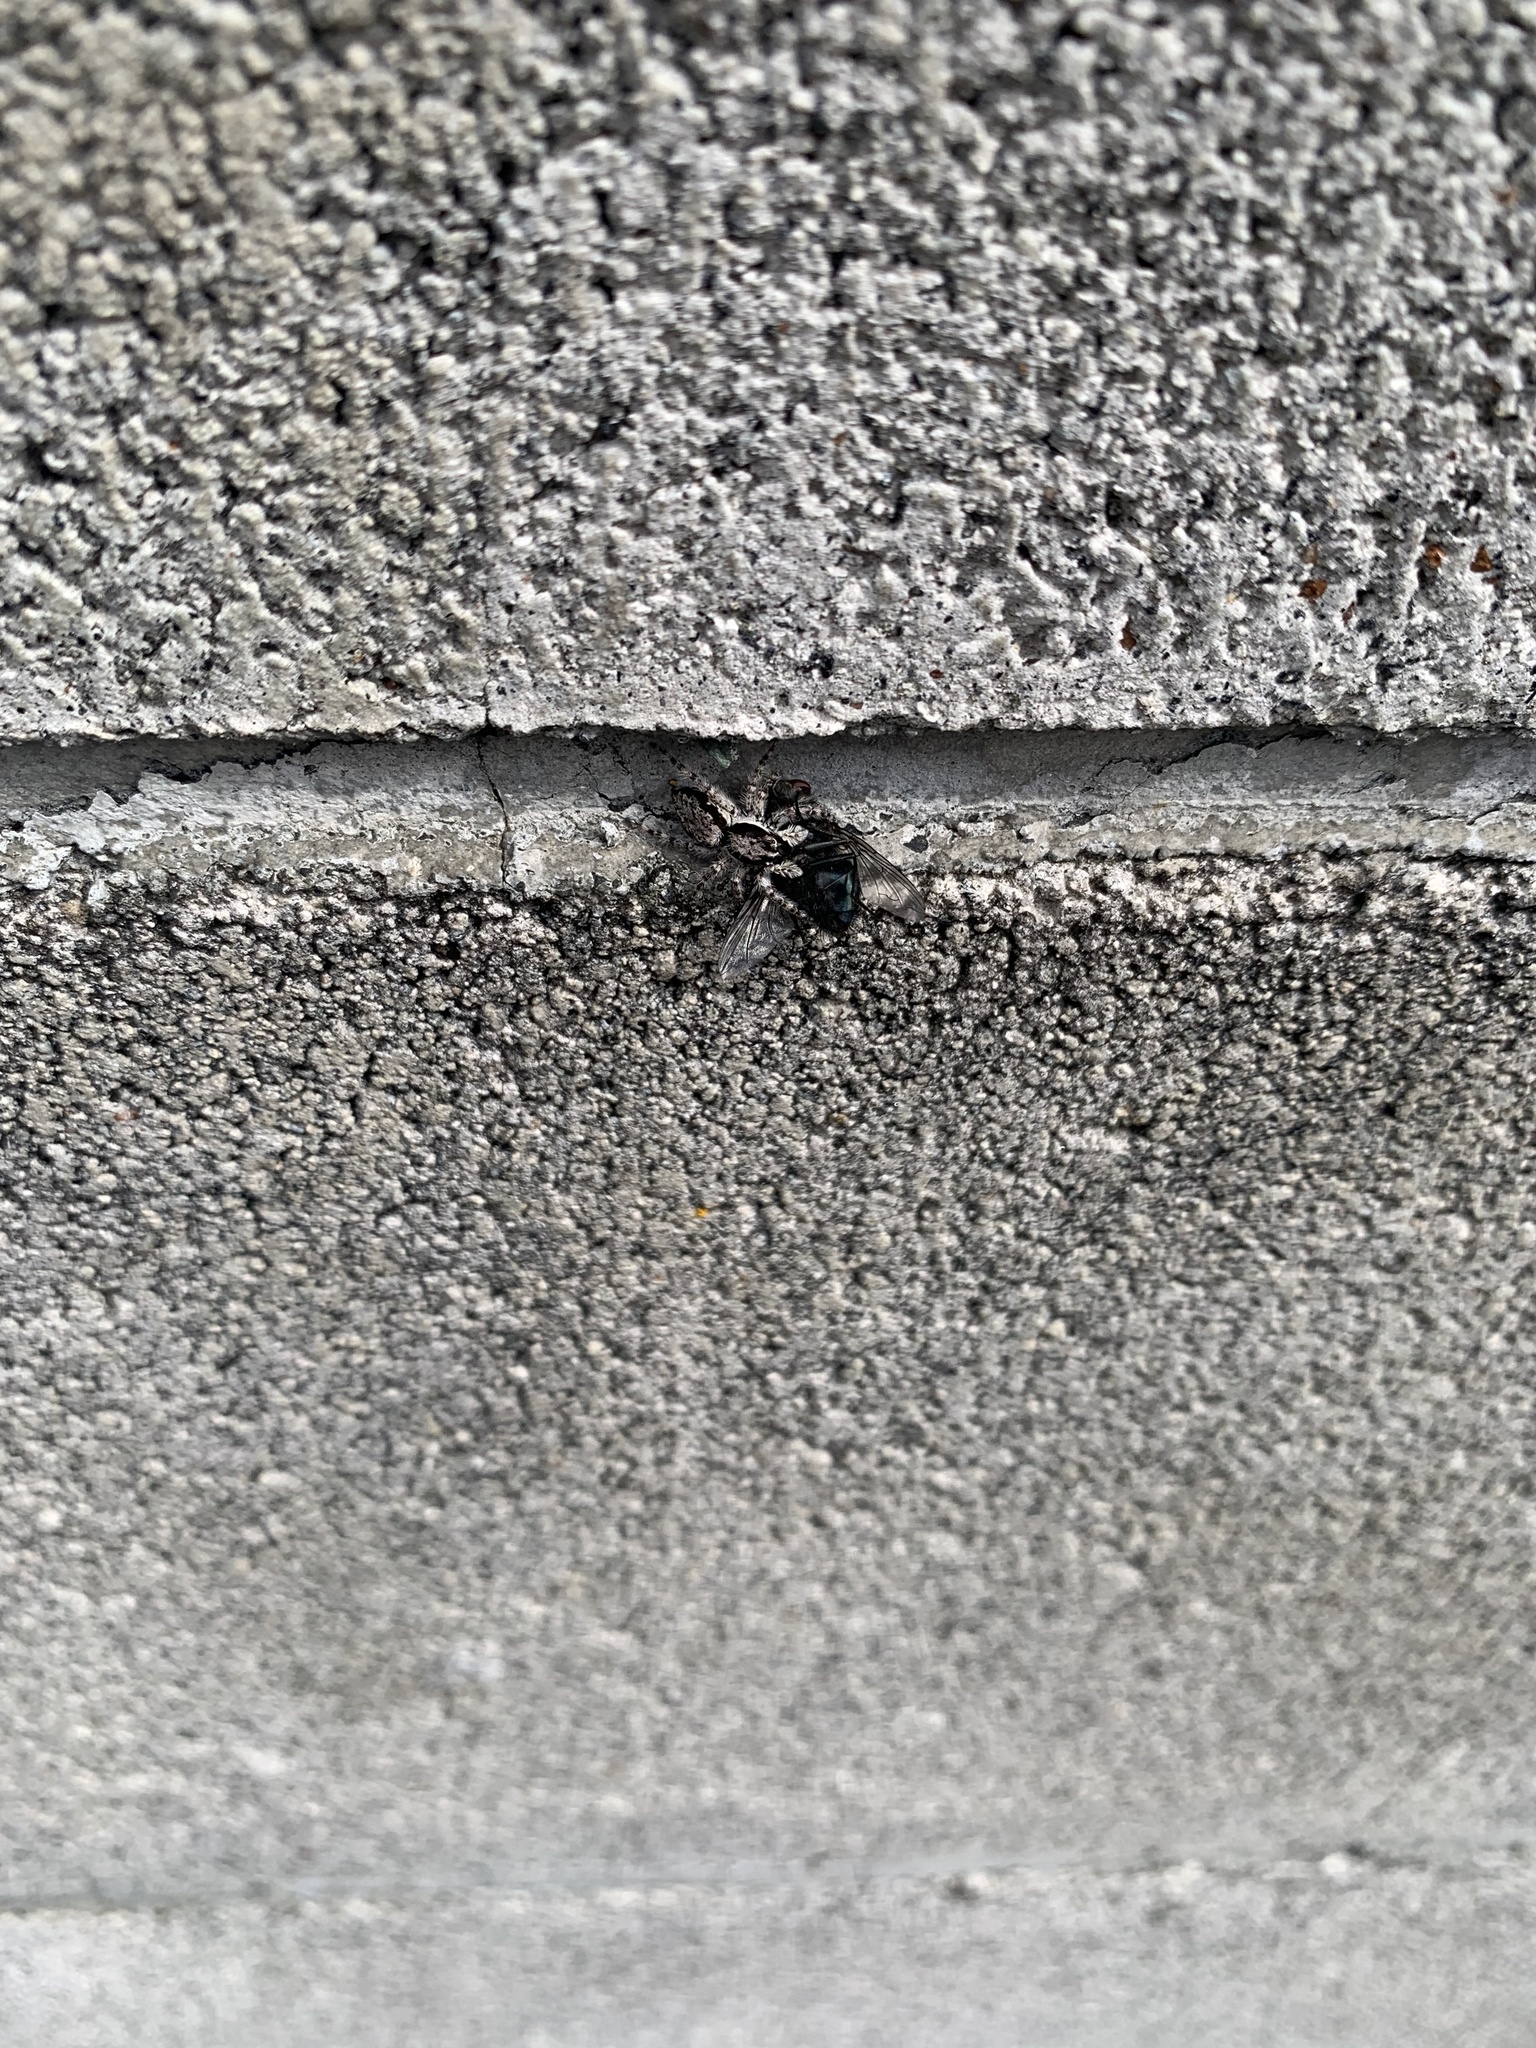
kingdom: Animalia
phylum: Arthropoda
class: Arachnida
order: Araneae
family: Salticidae
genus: Menemerus
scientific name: Menemerus fulvus
